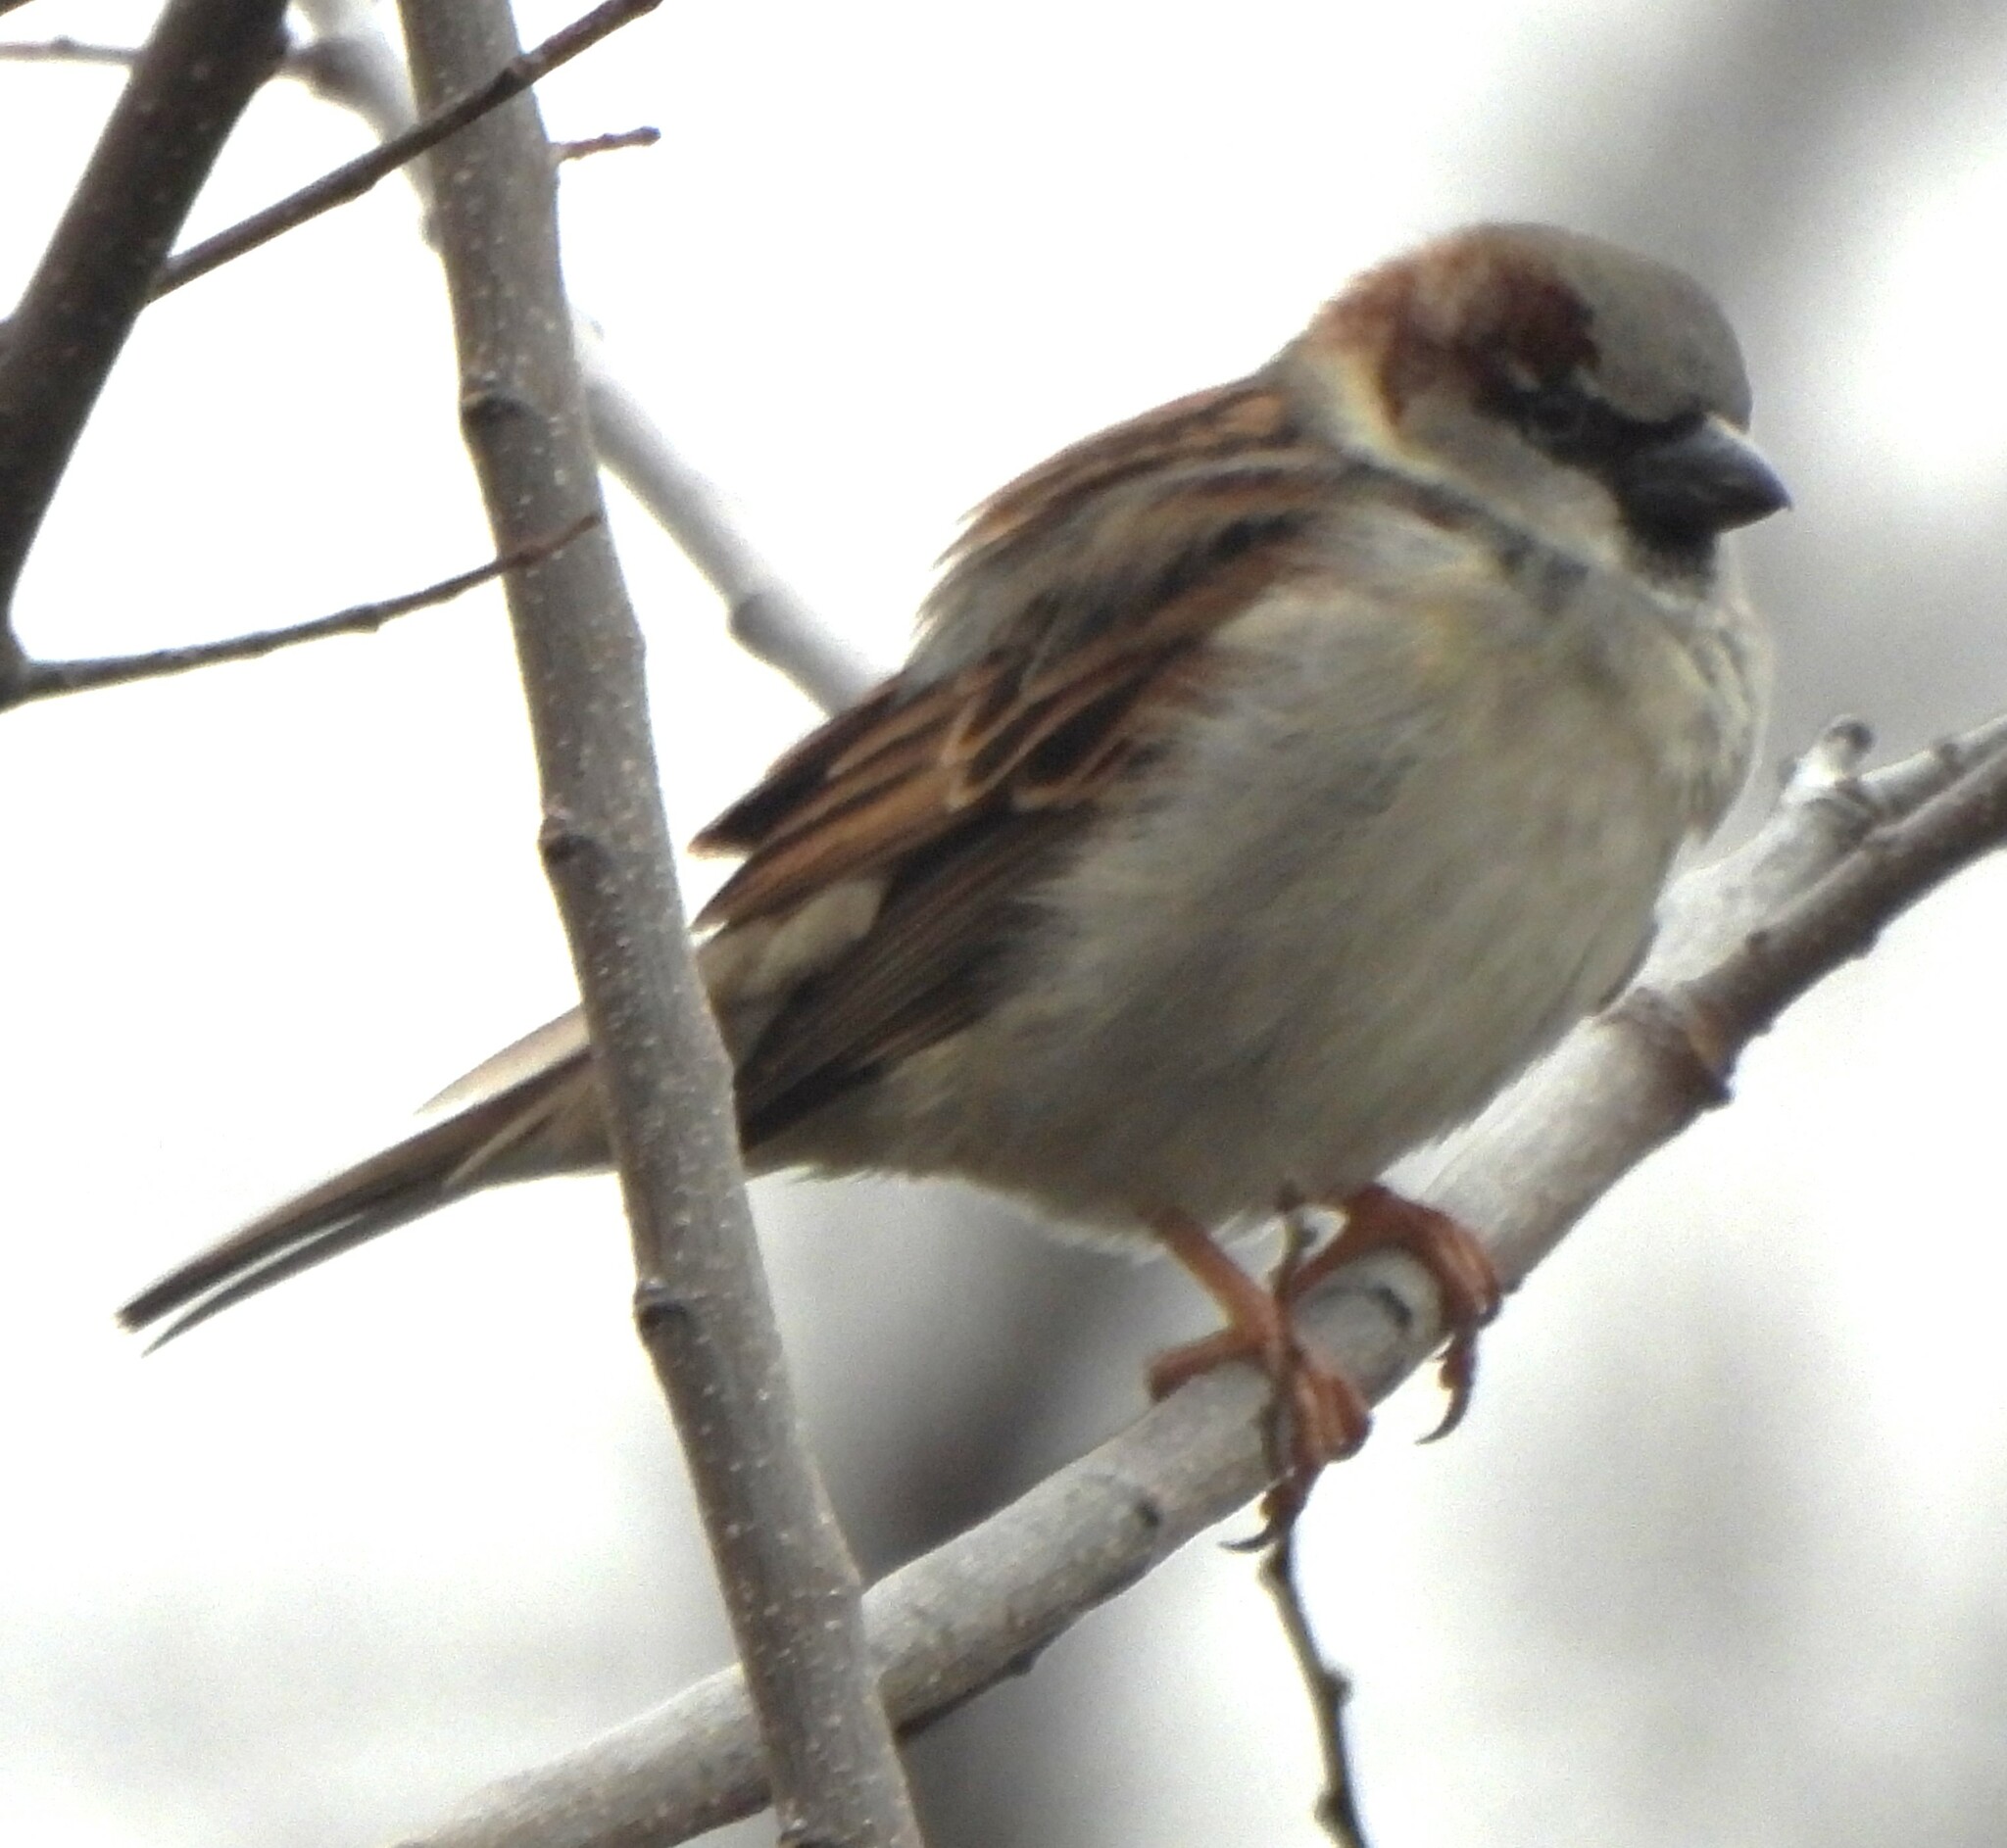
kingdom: Animalia
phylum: Chordata
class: Aves
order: Passeriformes
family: Passeridae
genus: Passer
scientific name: Passer domesticus
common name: House sparrow
